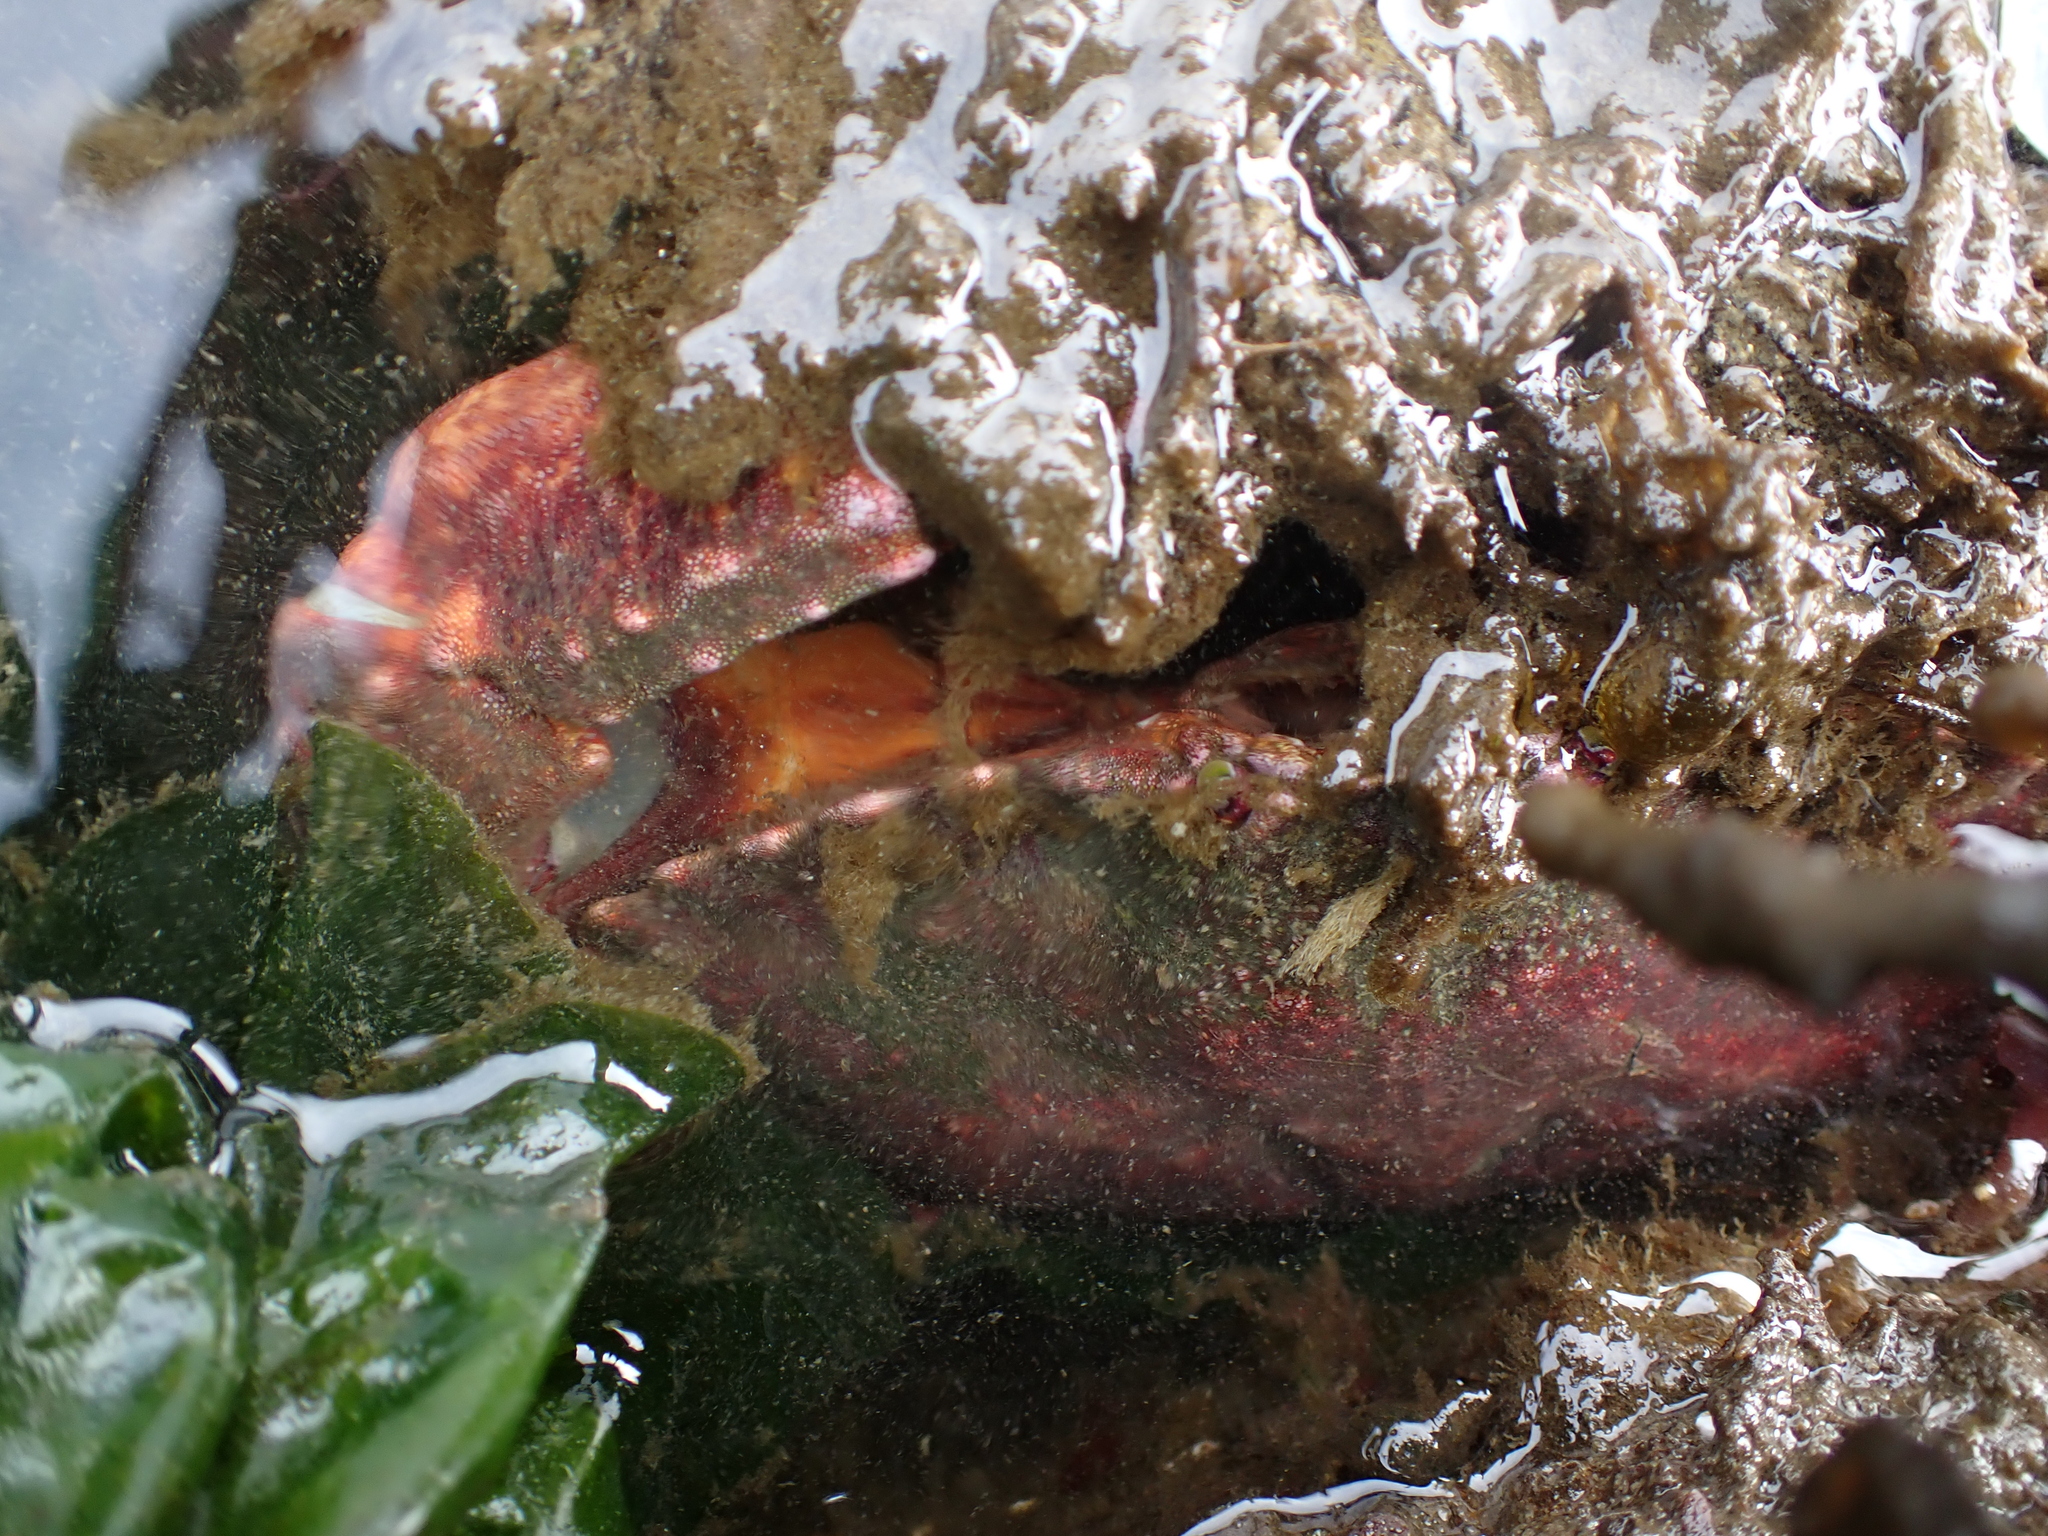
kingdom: Animalia
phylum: Arthropoda
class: Malacostraca
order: Decapoda
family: Cancridae
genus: Cancer
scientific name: Cancer productus
